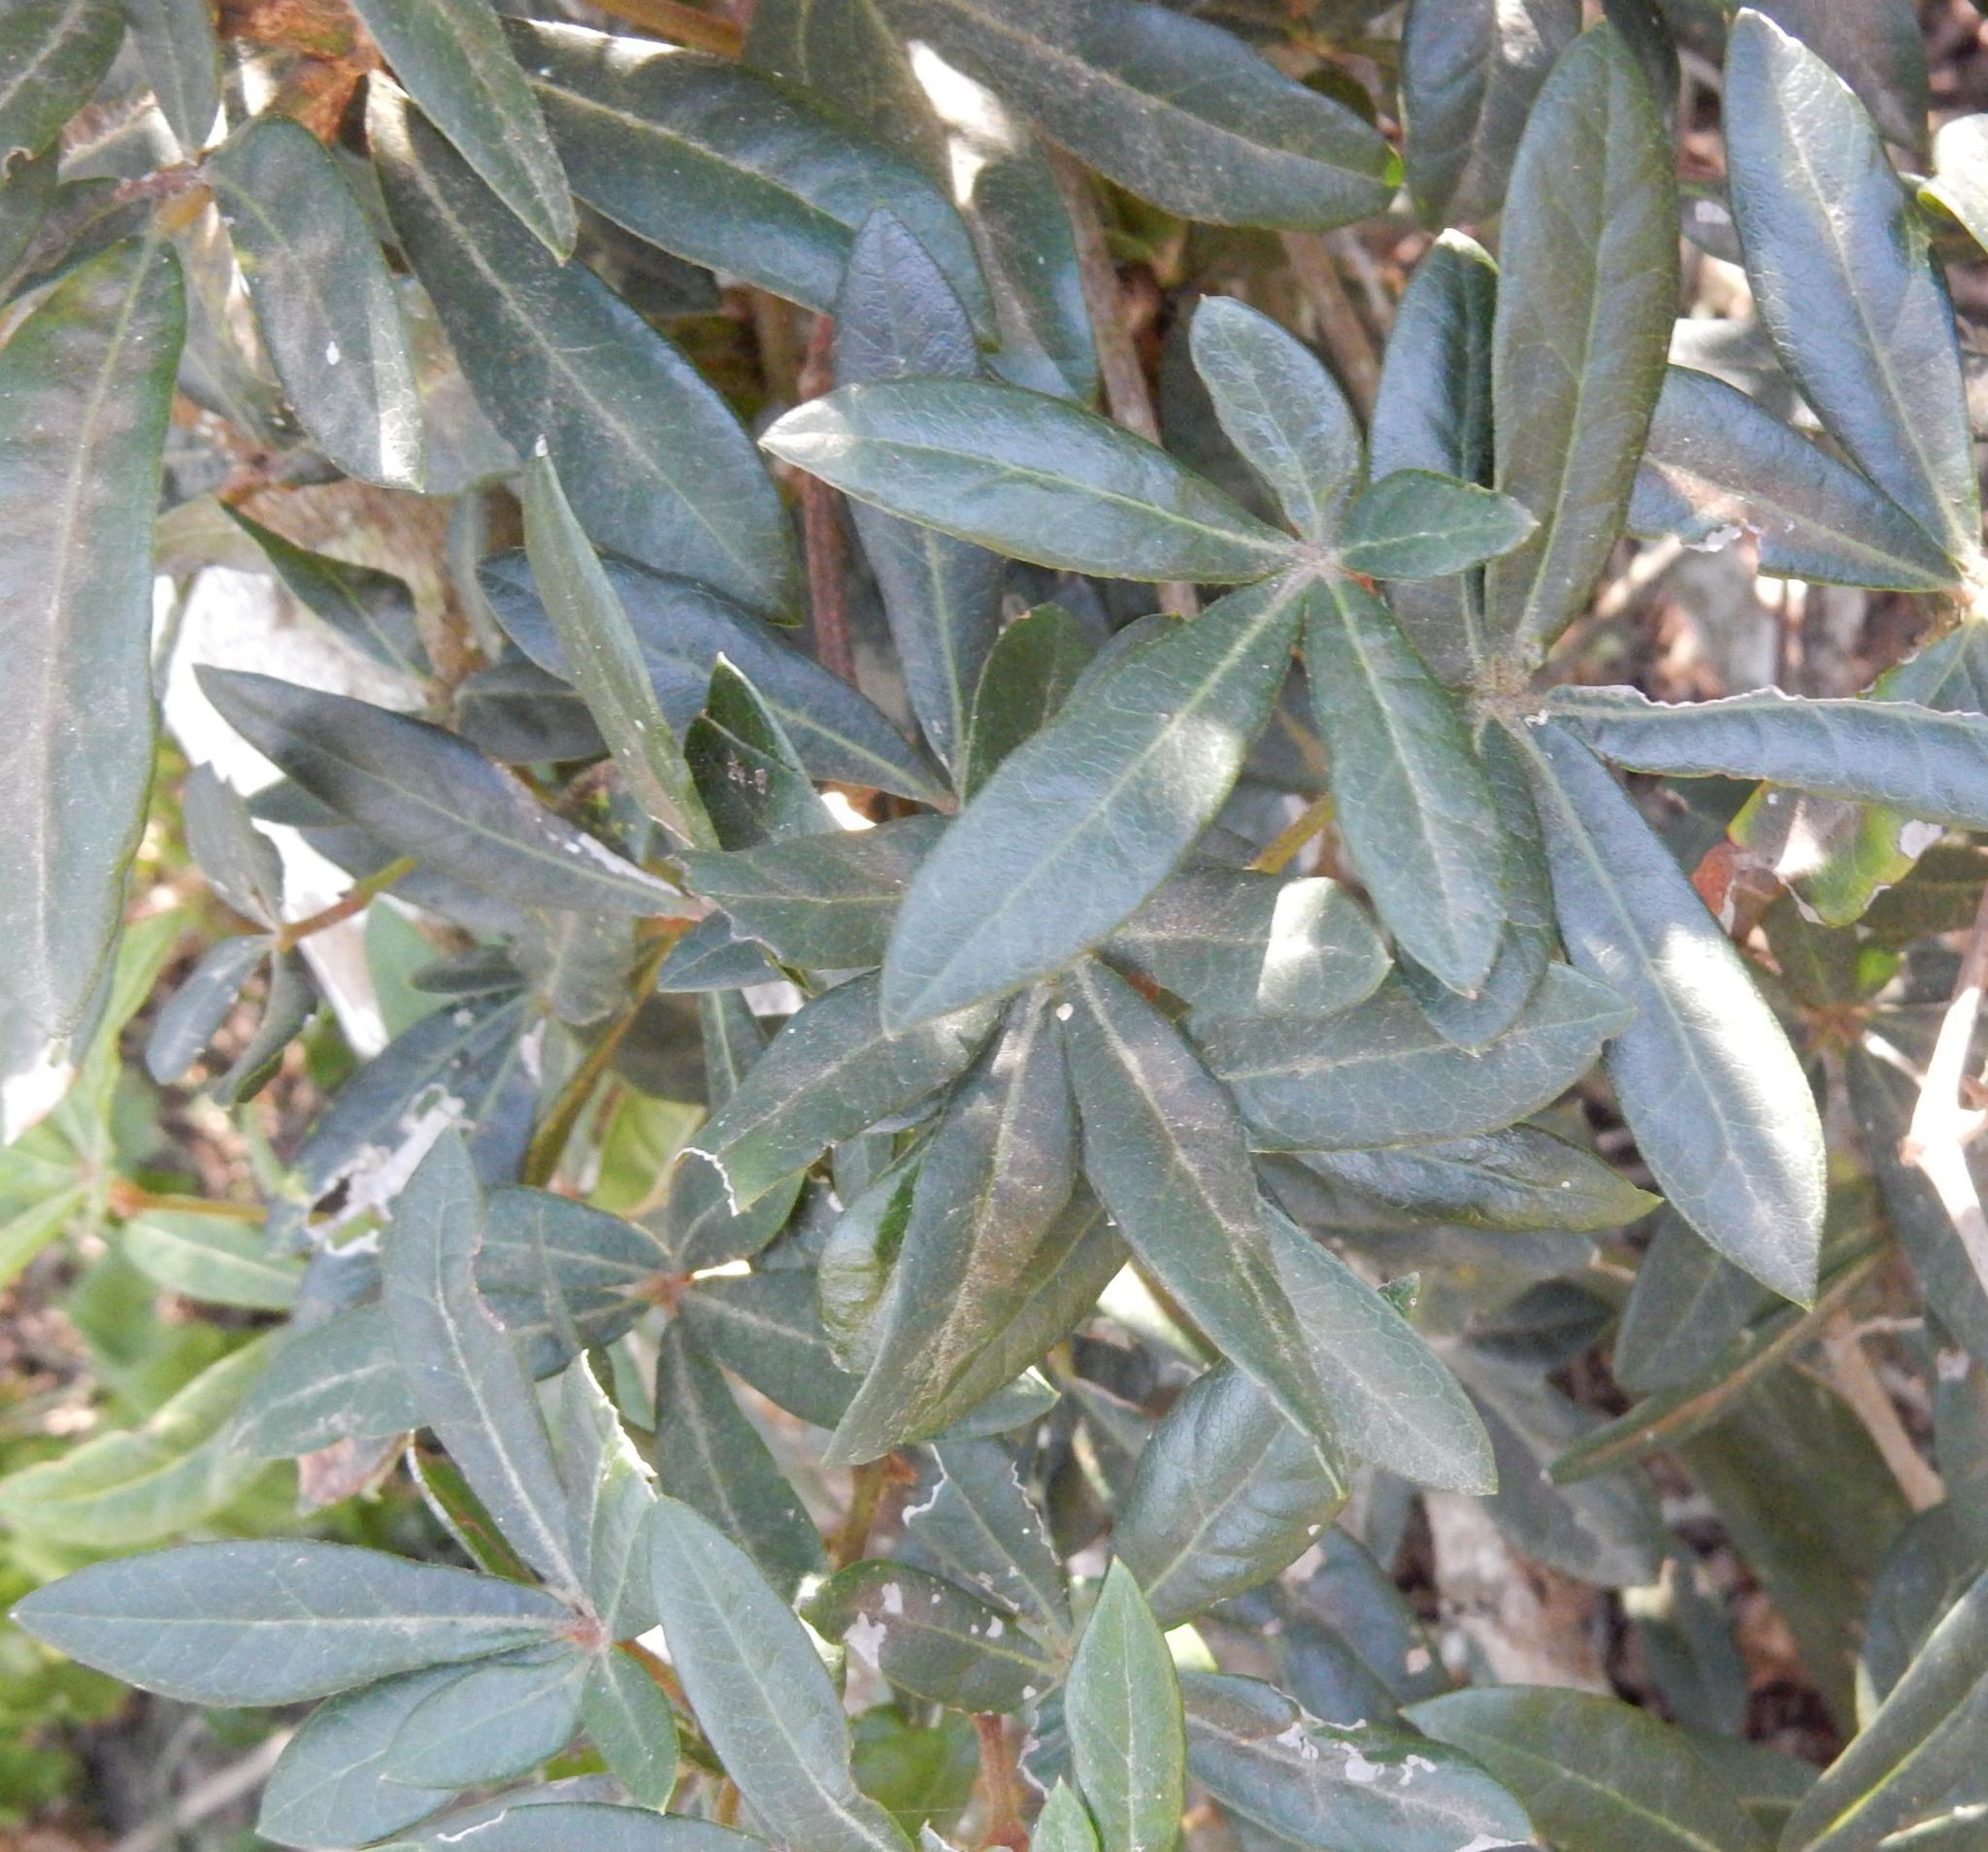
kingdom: Plantae
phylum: Tracheophyta
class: Magnoliopsida
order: Vitales
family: Vitaceae
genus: Rhoicissus
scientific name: Rhoicissus digitata
